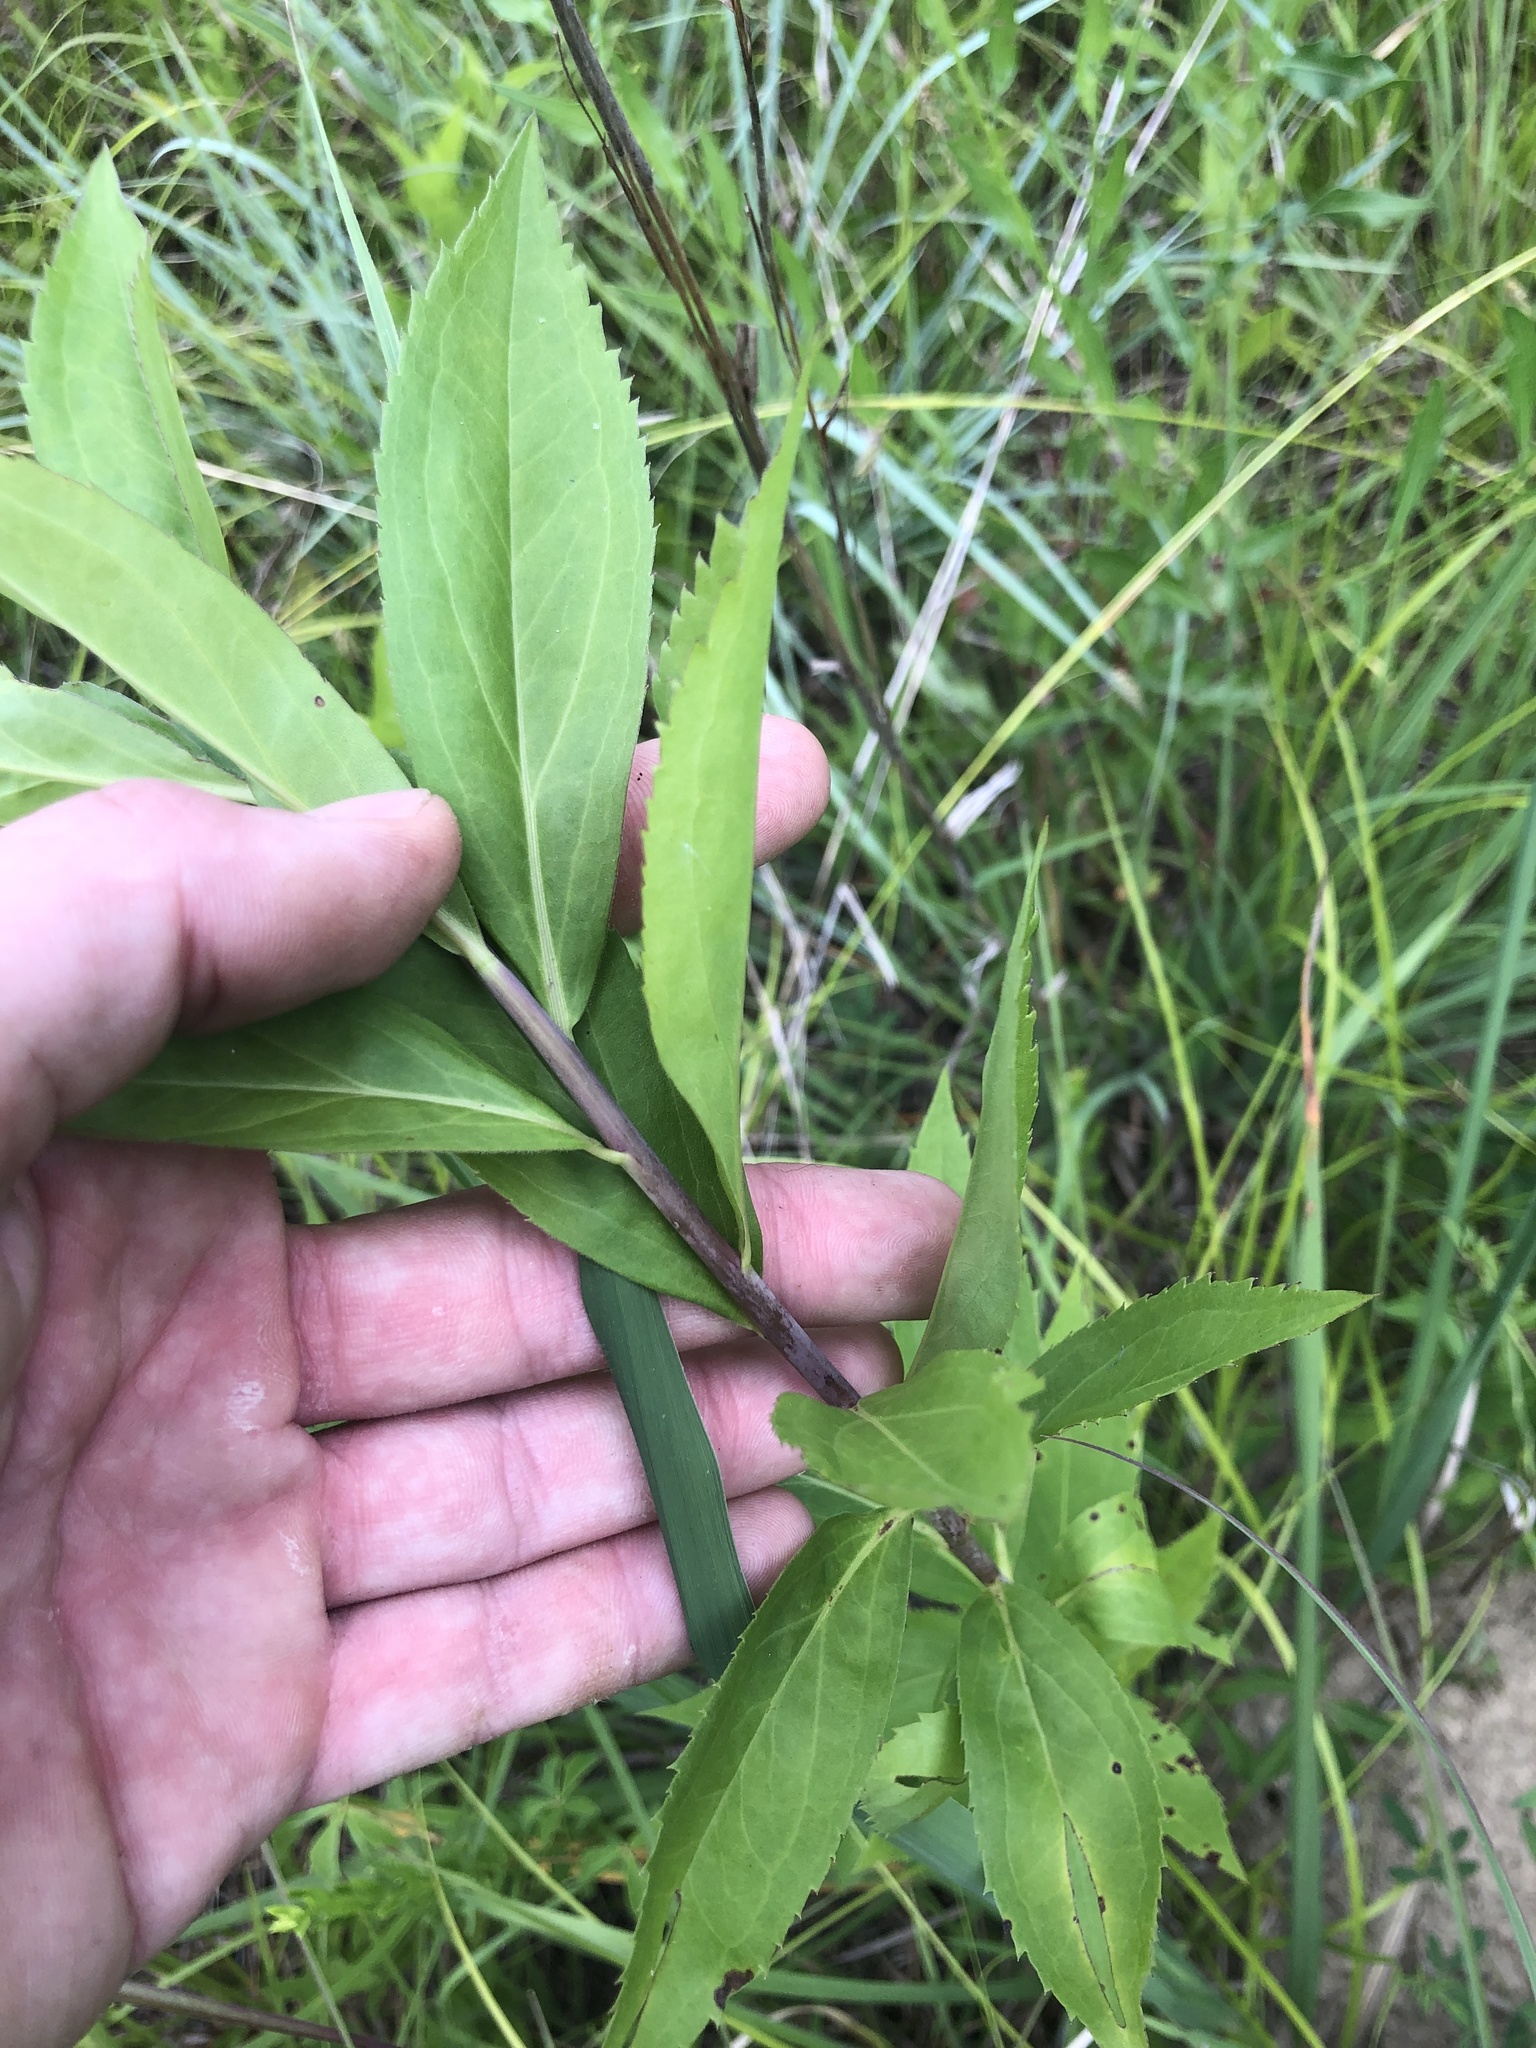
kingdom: Plantae
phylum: Tracheophyta
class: Magnoliopsida
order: Asterales
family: Asteraceae
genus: Solidago
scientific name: Solidago gigantea
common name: Giant goldenrod
